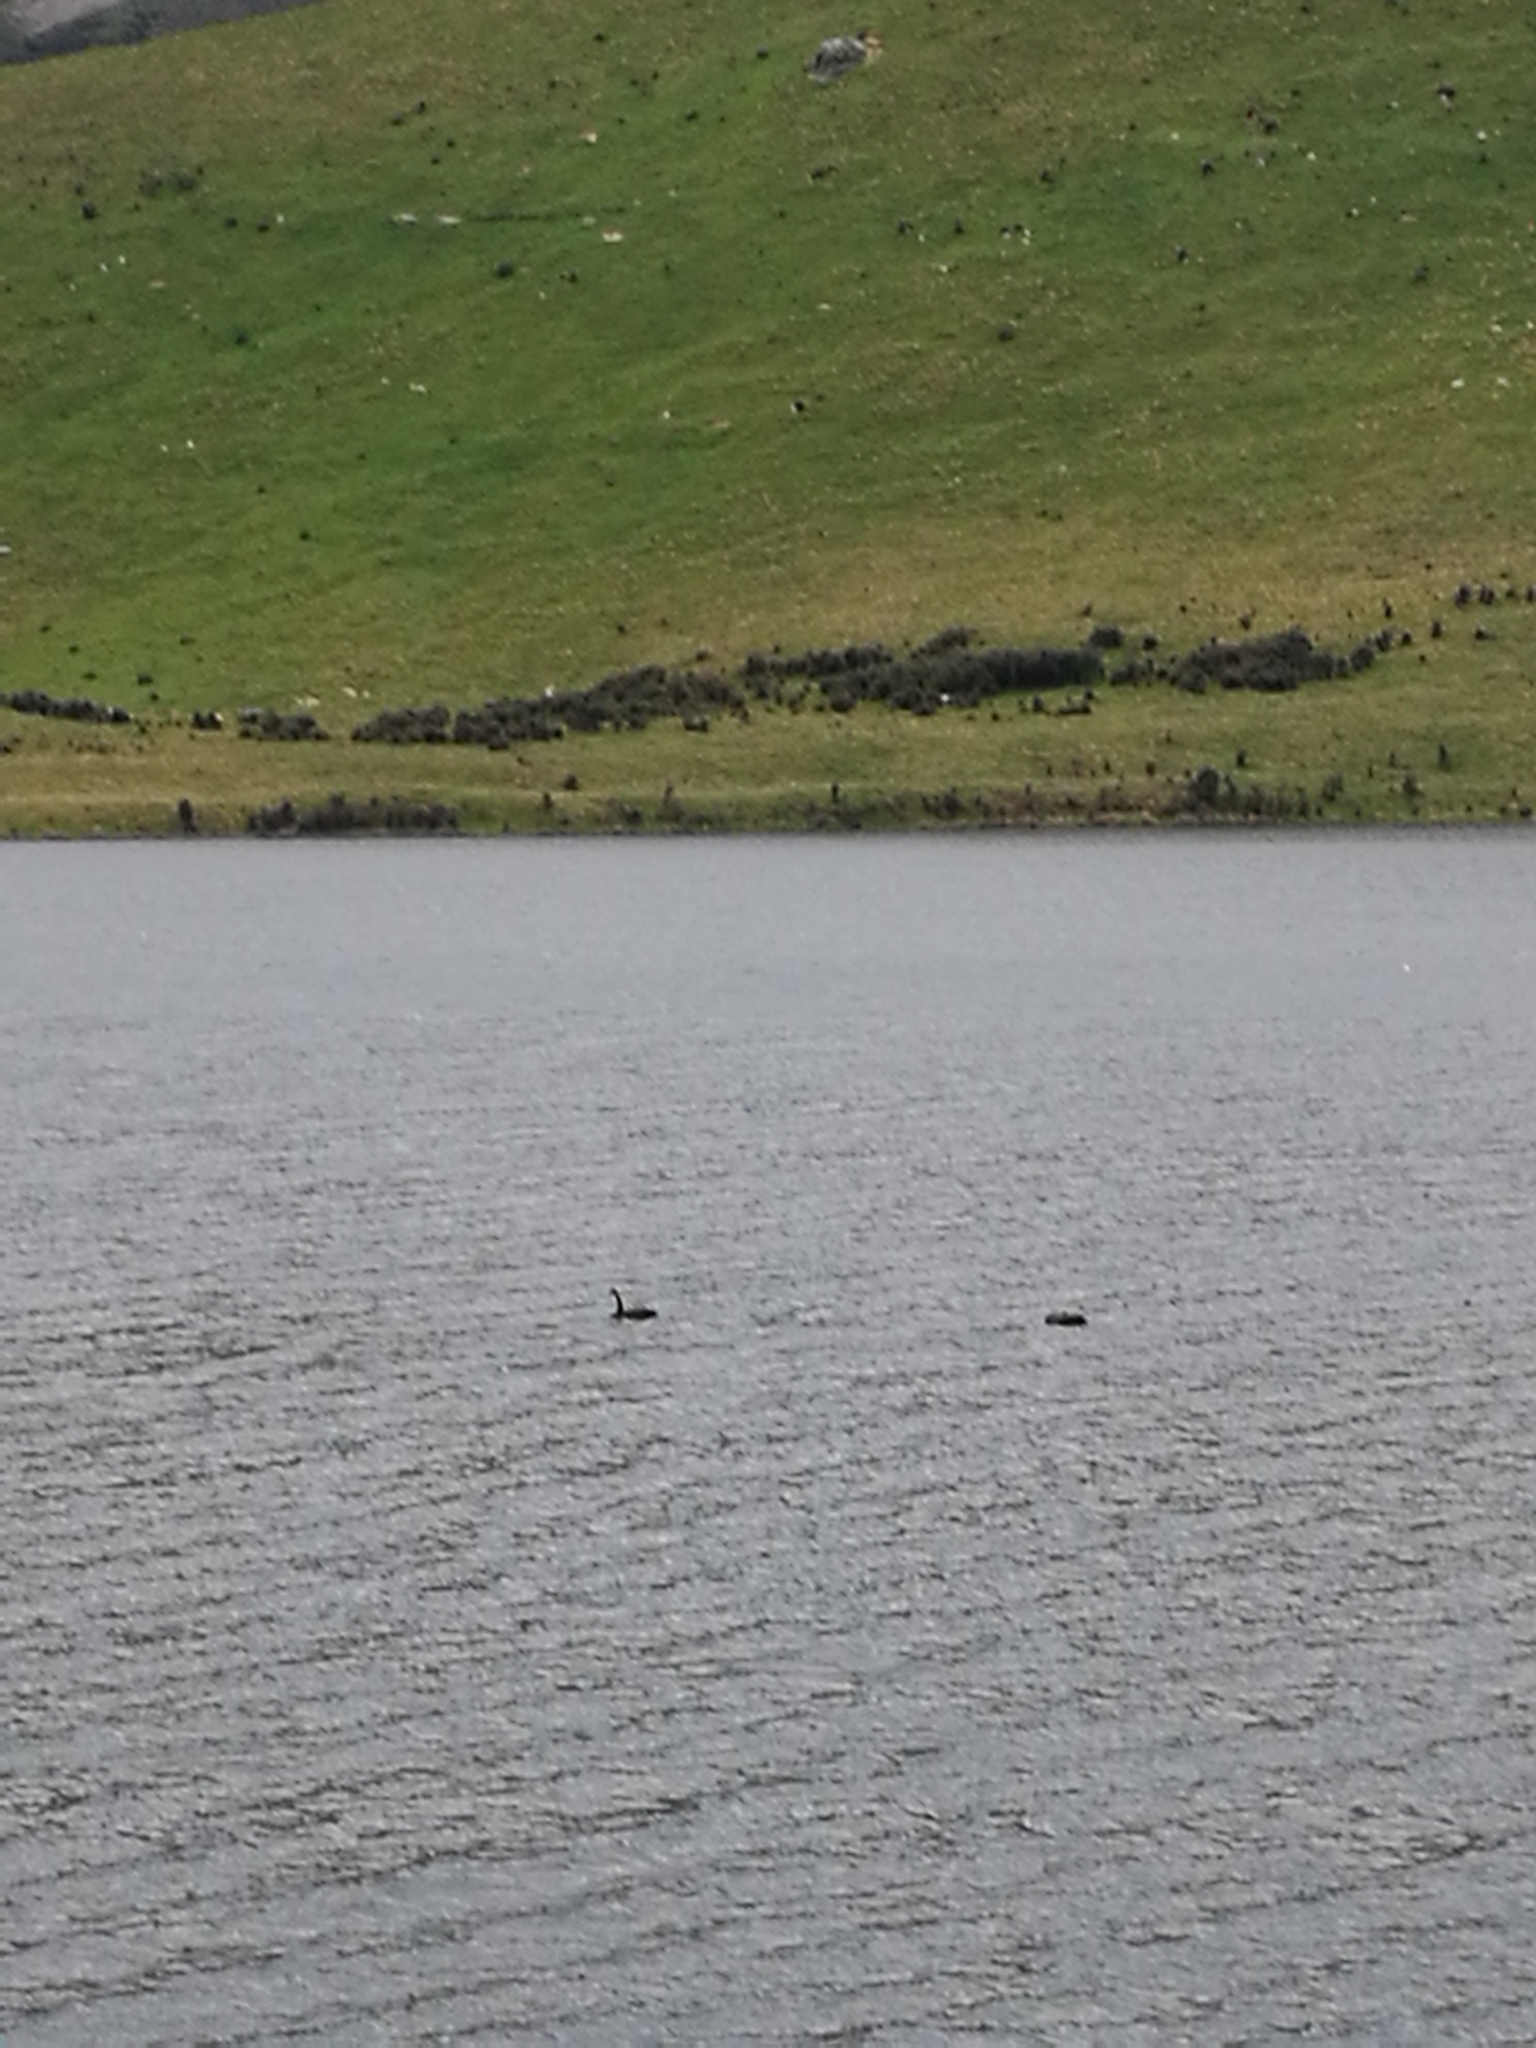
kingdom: Animalia
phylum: Chordata
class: Aves
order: Anseriformes
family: Anatidae
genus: Cygnus
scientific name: Cygnus atratus
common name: Black swan
